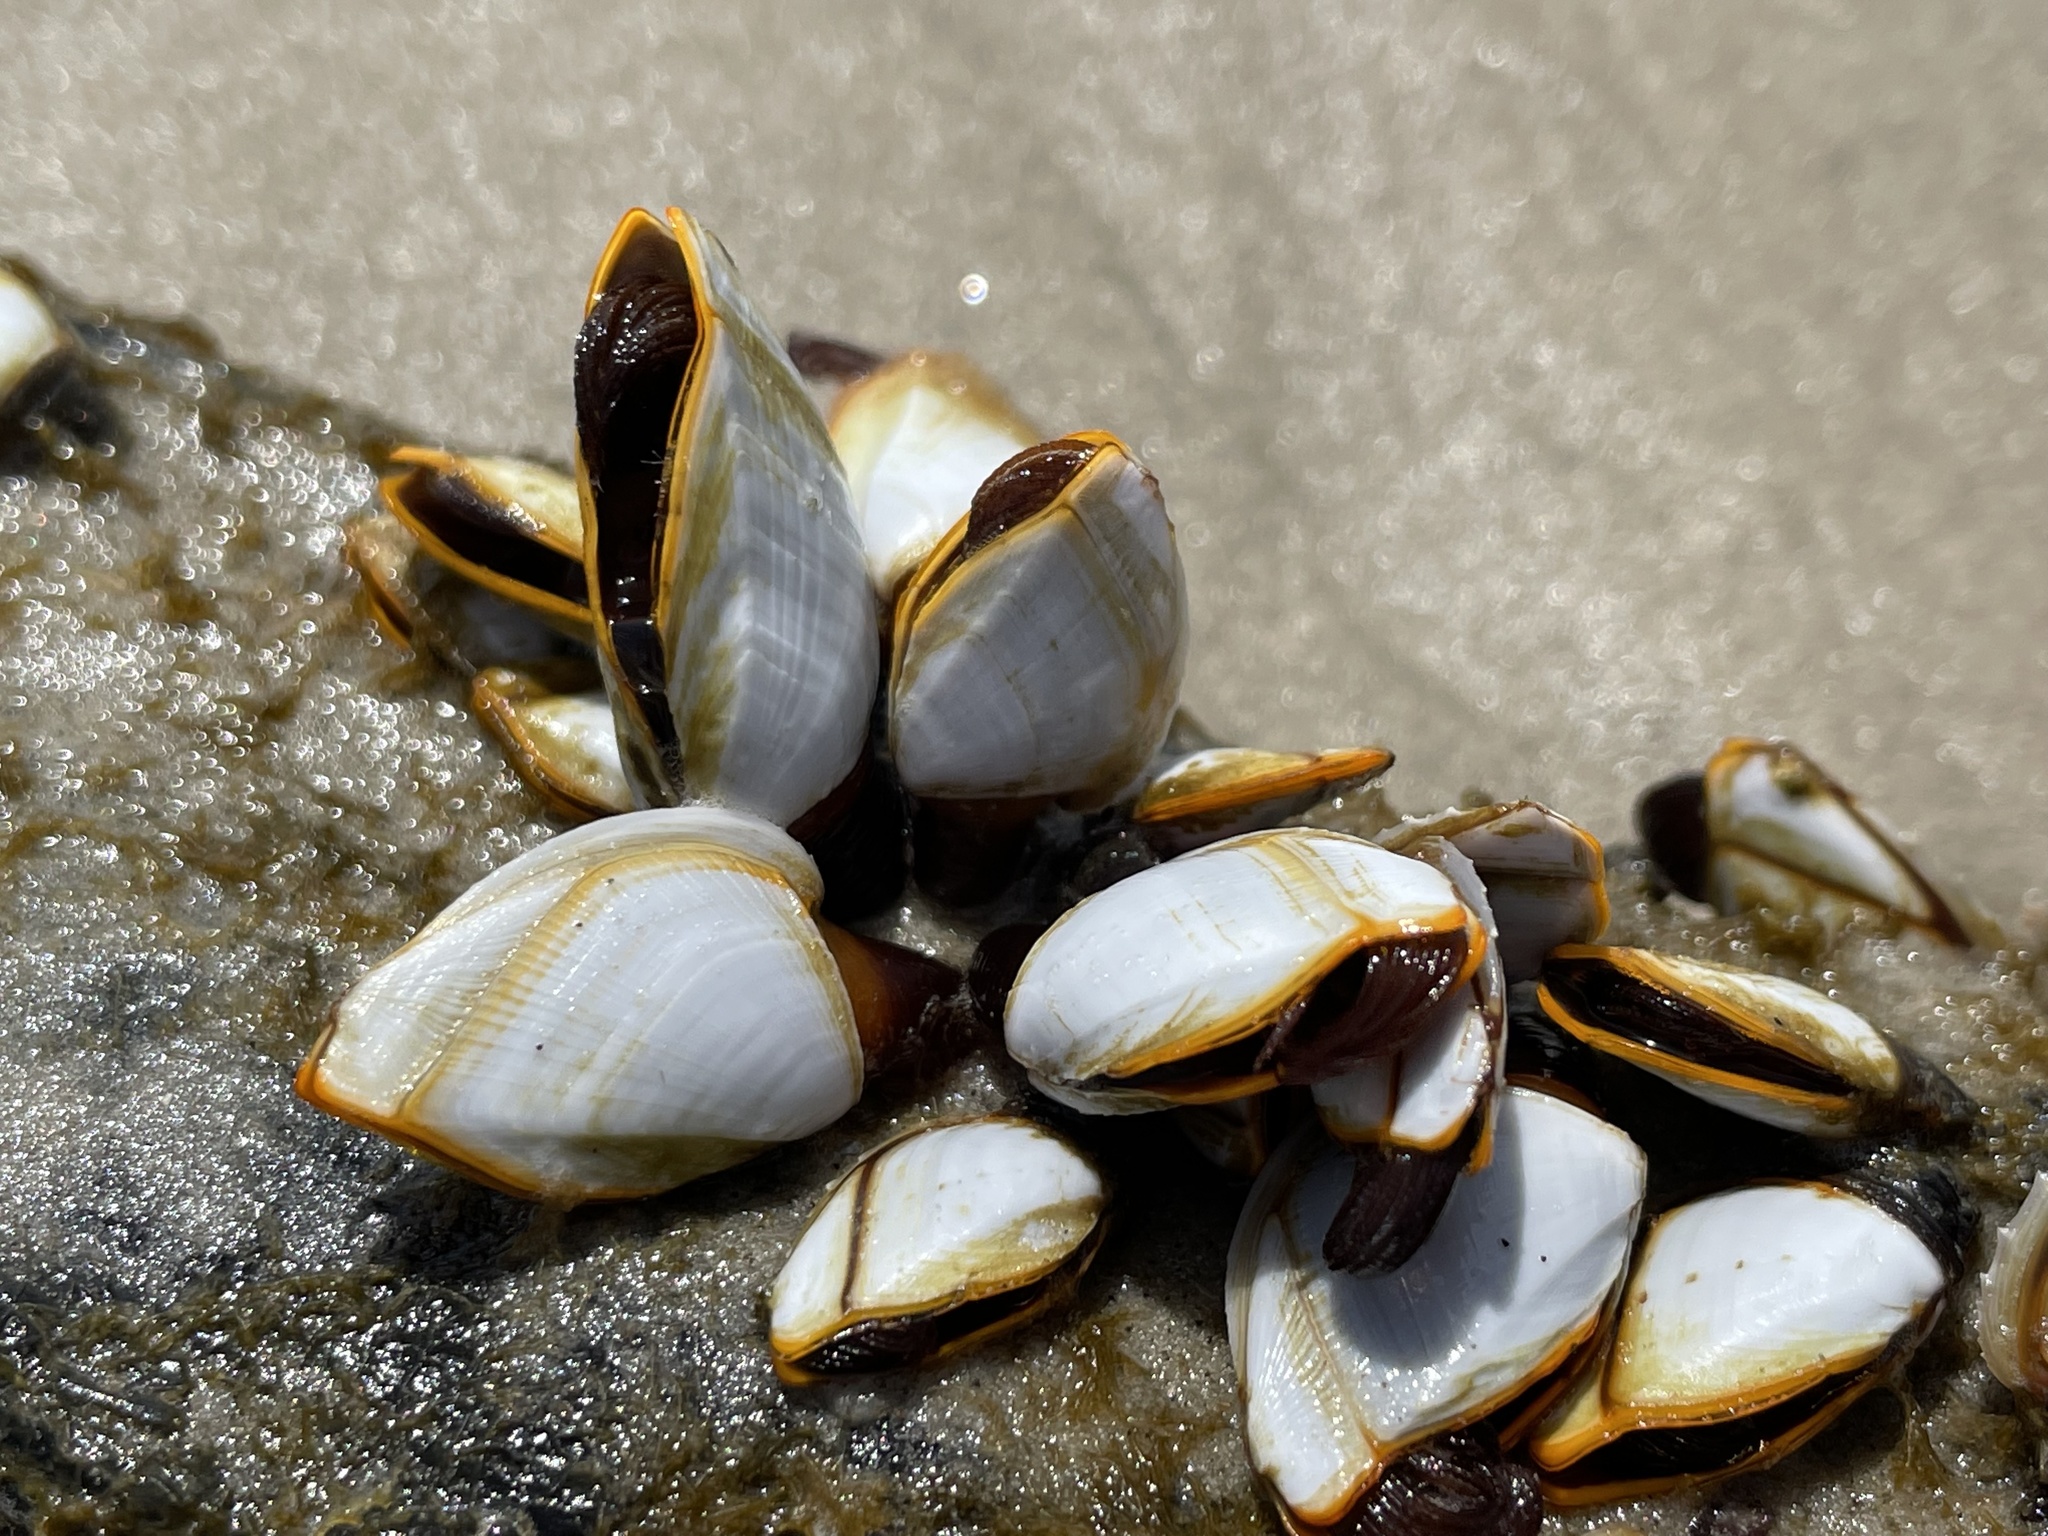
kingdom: Animalia
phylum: Arthropoda
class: Maxillopoda
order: Pedunculata
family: Lepadidae
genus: Lepas
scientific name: Lepas anserifera
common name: Goose barnacle
